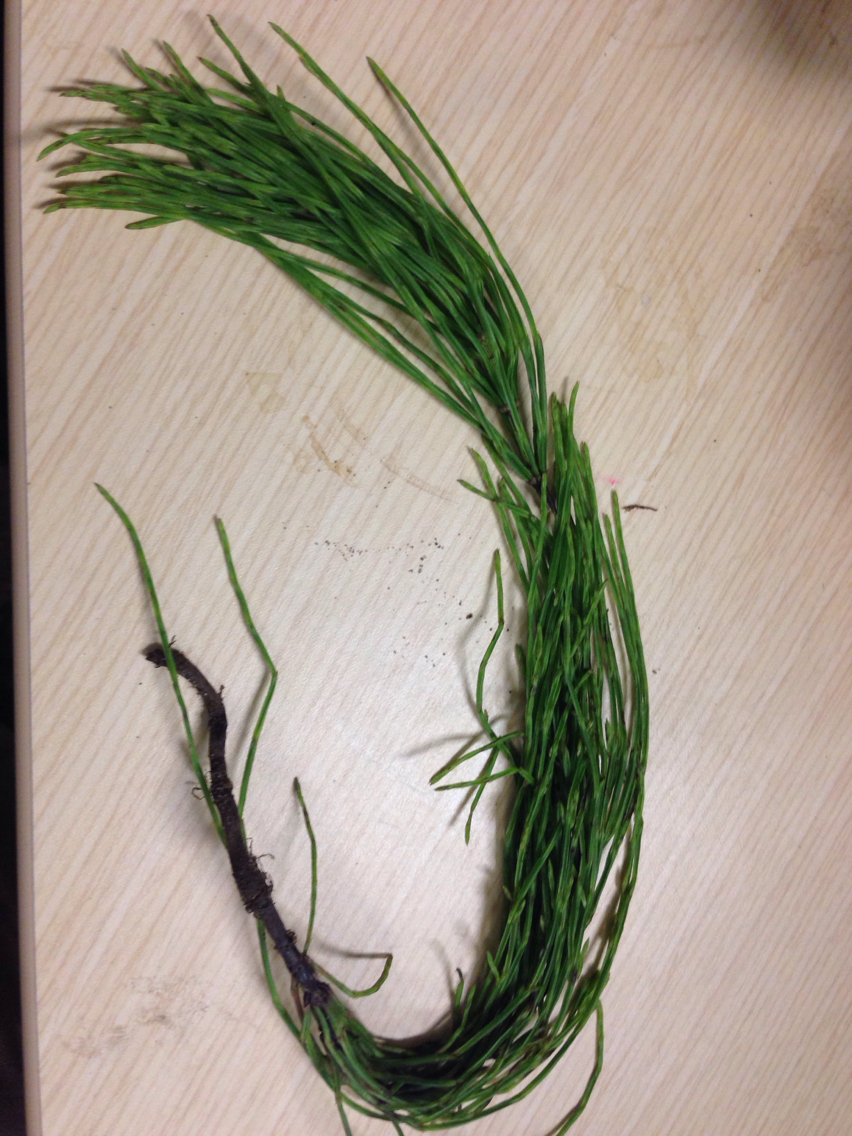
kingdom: Plantae
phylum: Tracheophyta
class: Polypodiopsida
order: Equisetales
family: Equisetaceae
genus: Equisetum
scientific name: Equisetum arvense
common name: Field horsetail
